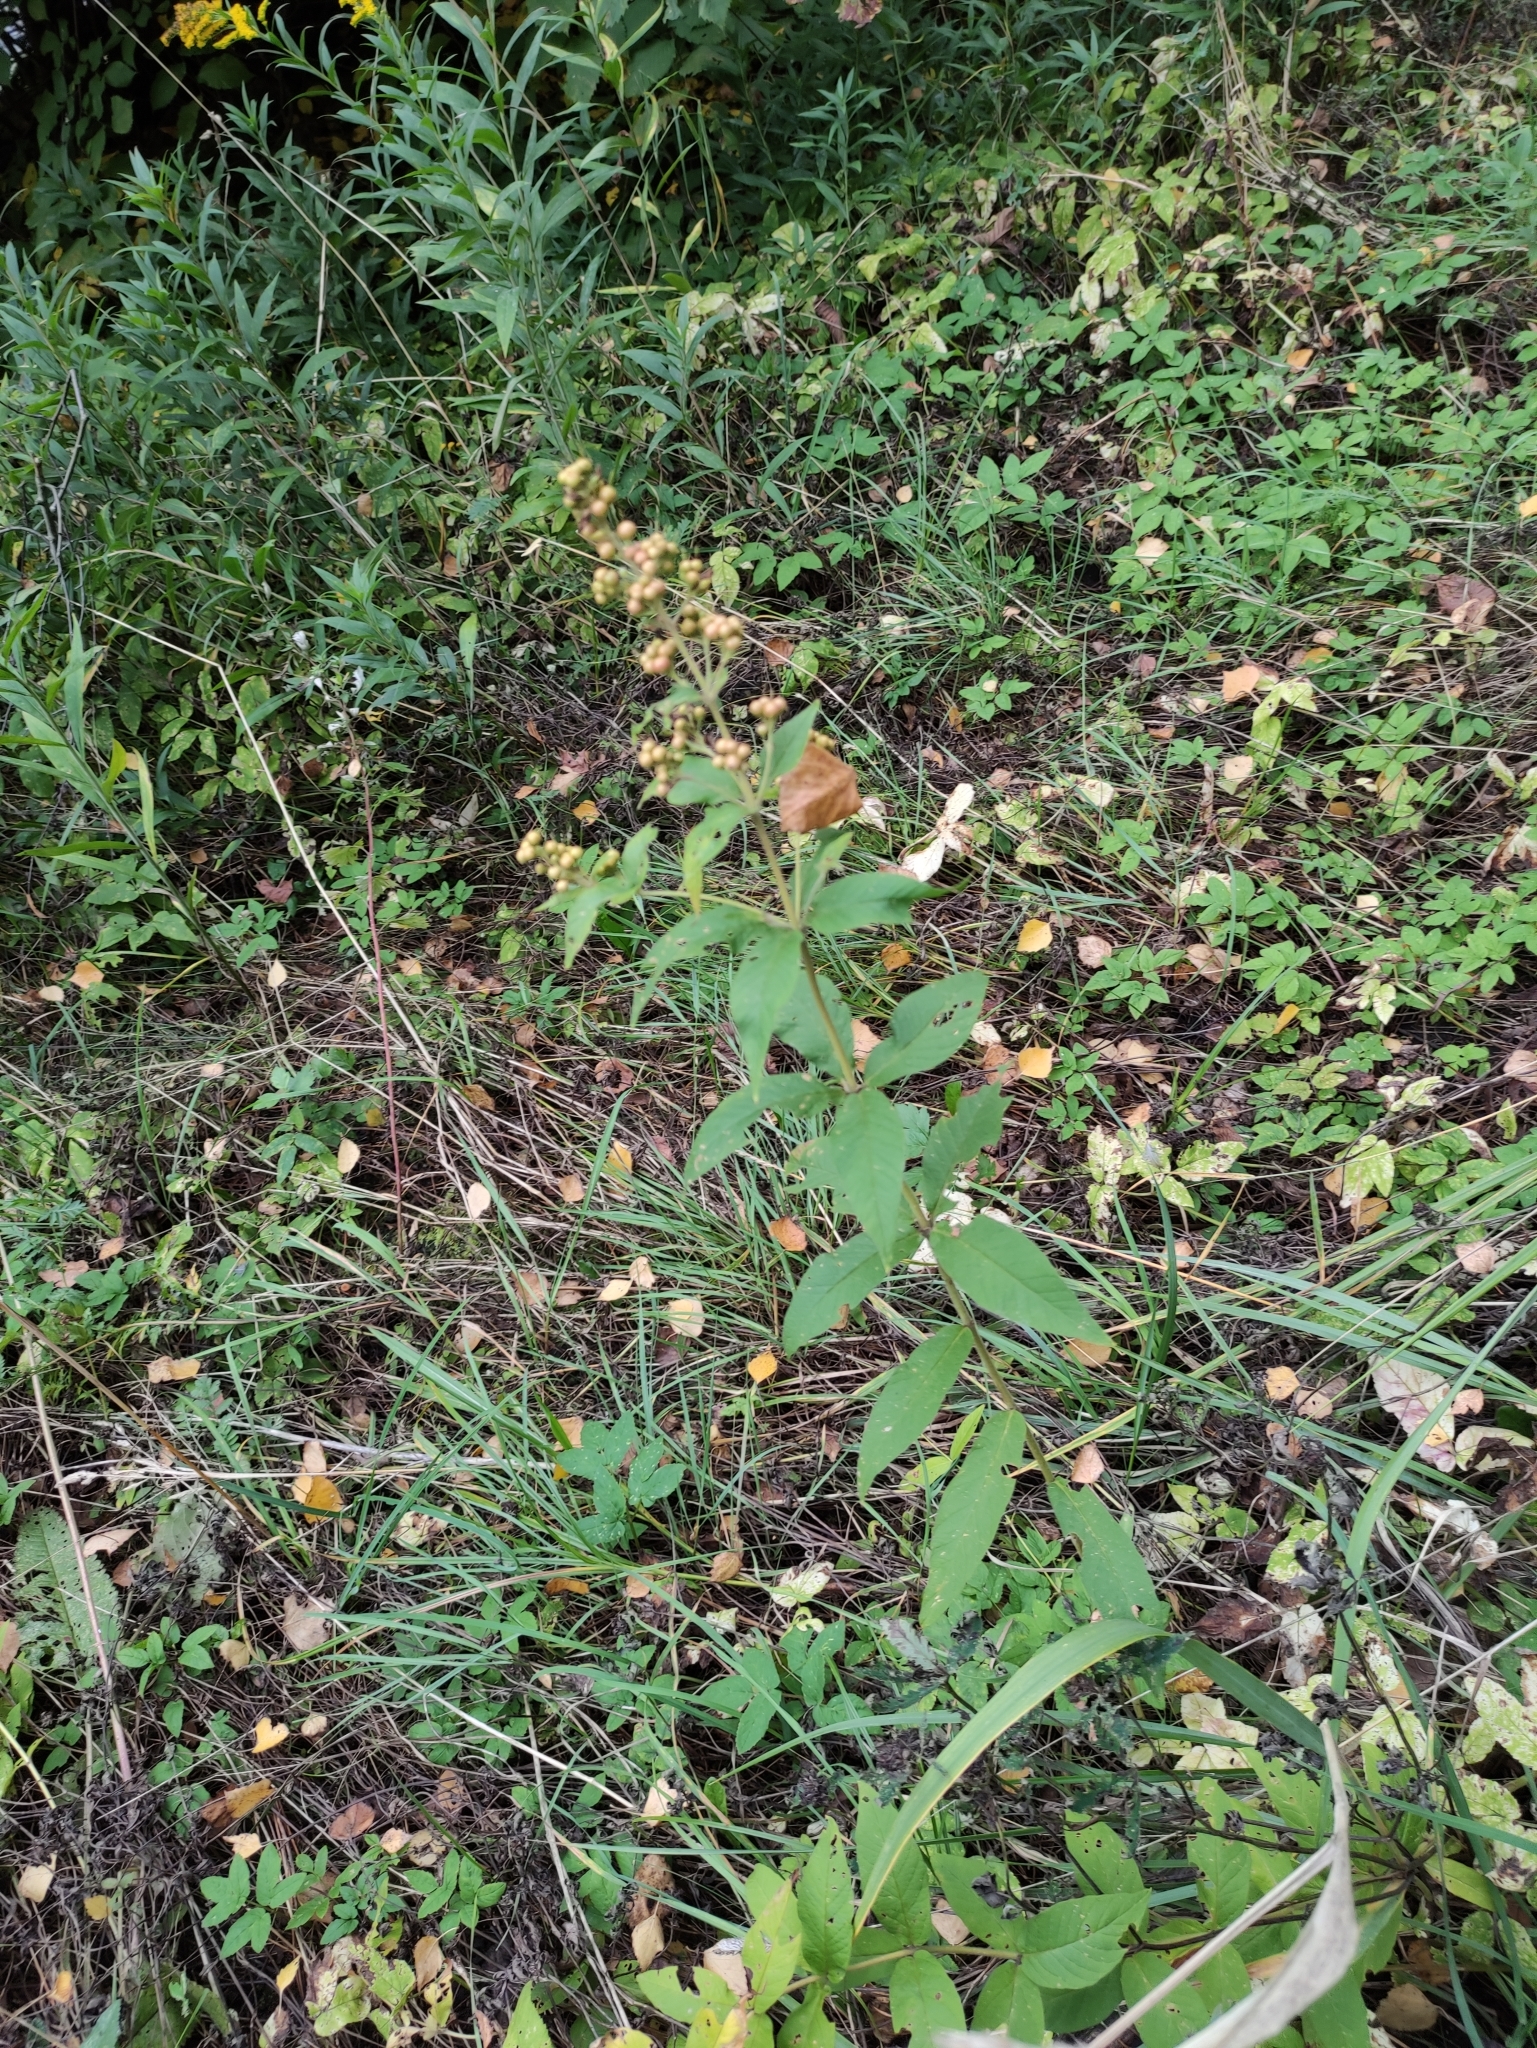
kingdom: Plantae
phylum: Tracheophyta
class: Magnoliopsida
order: Ericales
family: Primulaceae
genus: Lysimachia
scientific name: Lysimachia vulgaris
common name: Yellow loosestrife
